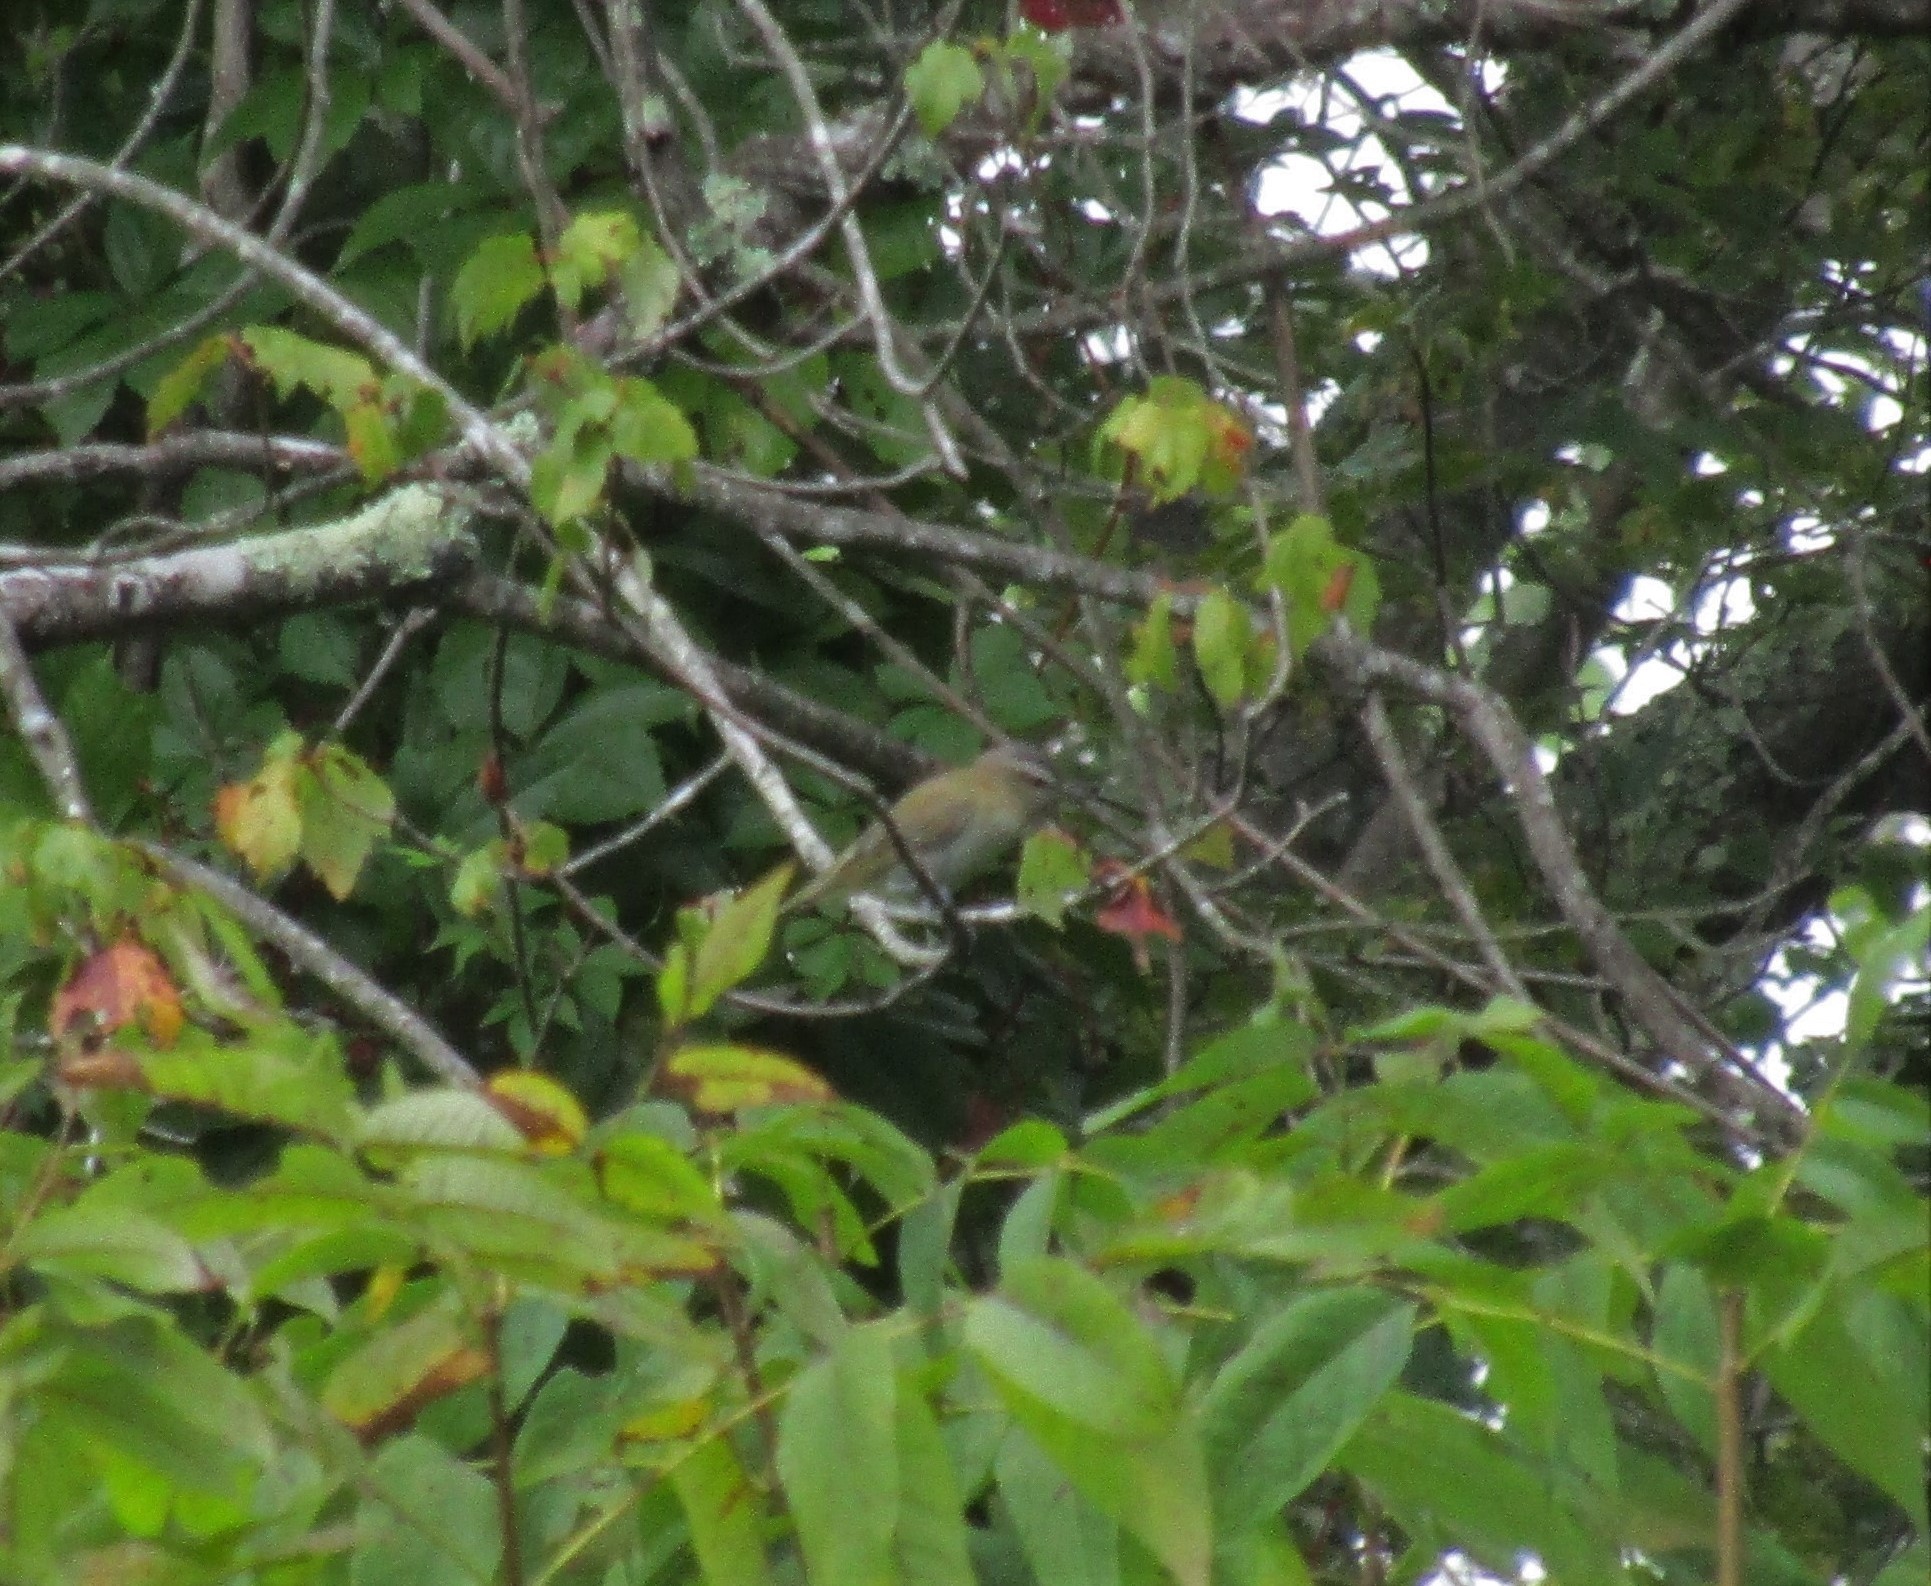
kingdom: Animalia
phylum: Chordata
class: Aves
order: Passeriformes
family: Vireonidae
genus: Vireo
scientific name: Vireo olivaceus
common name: Red-eyed vireo
